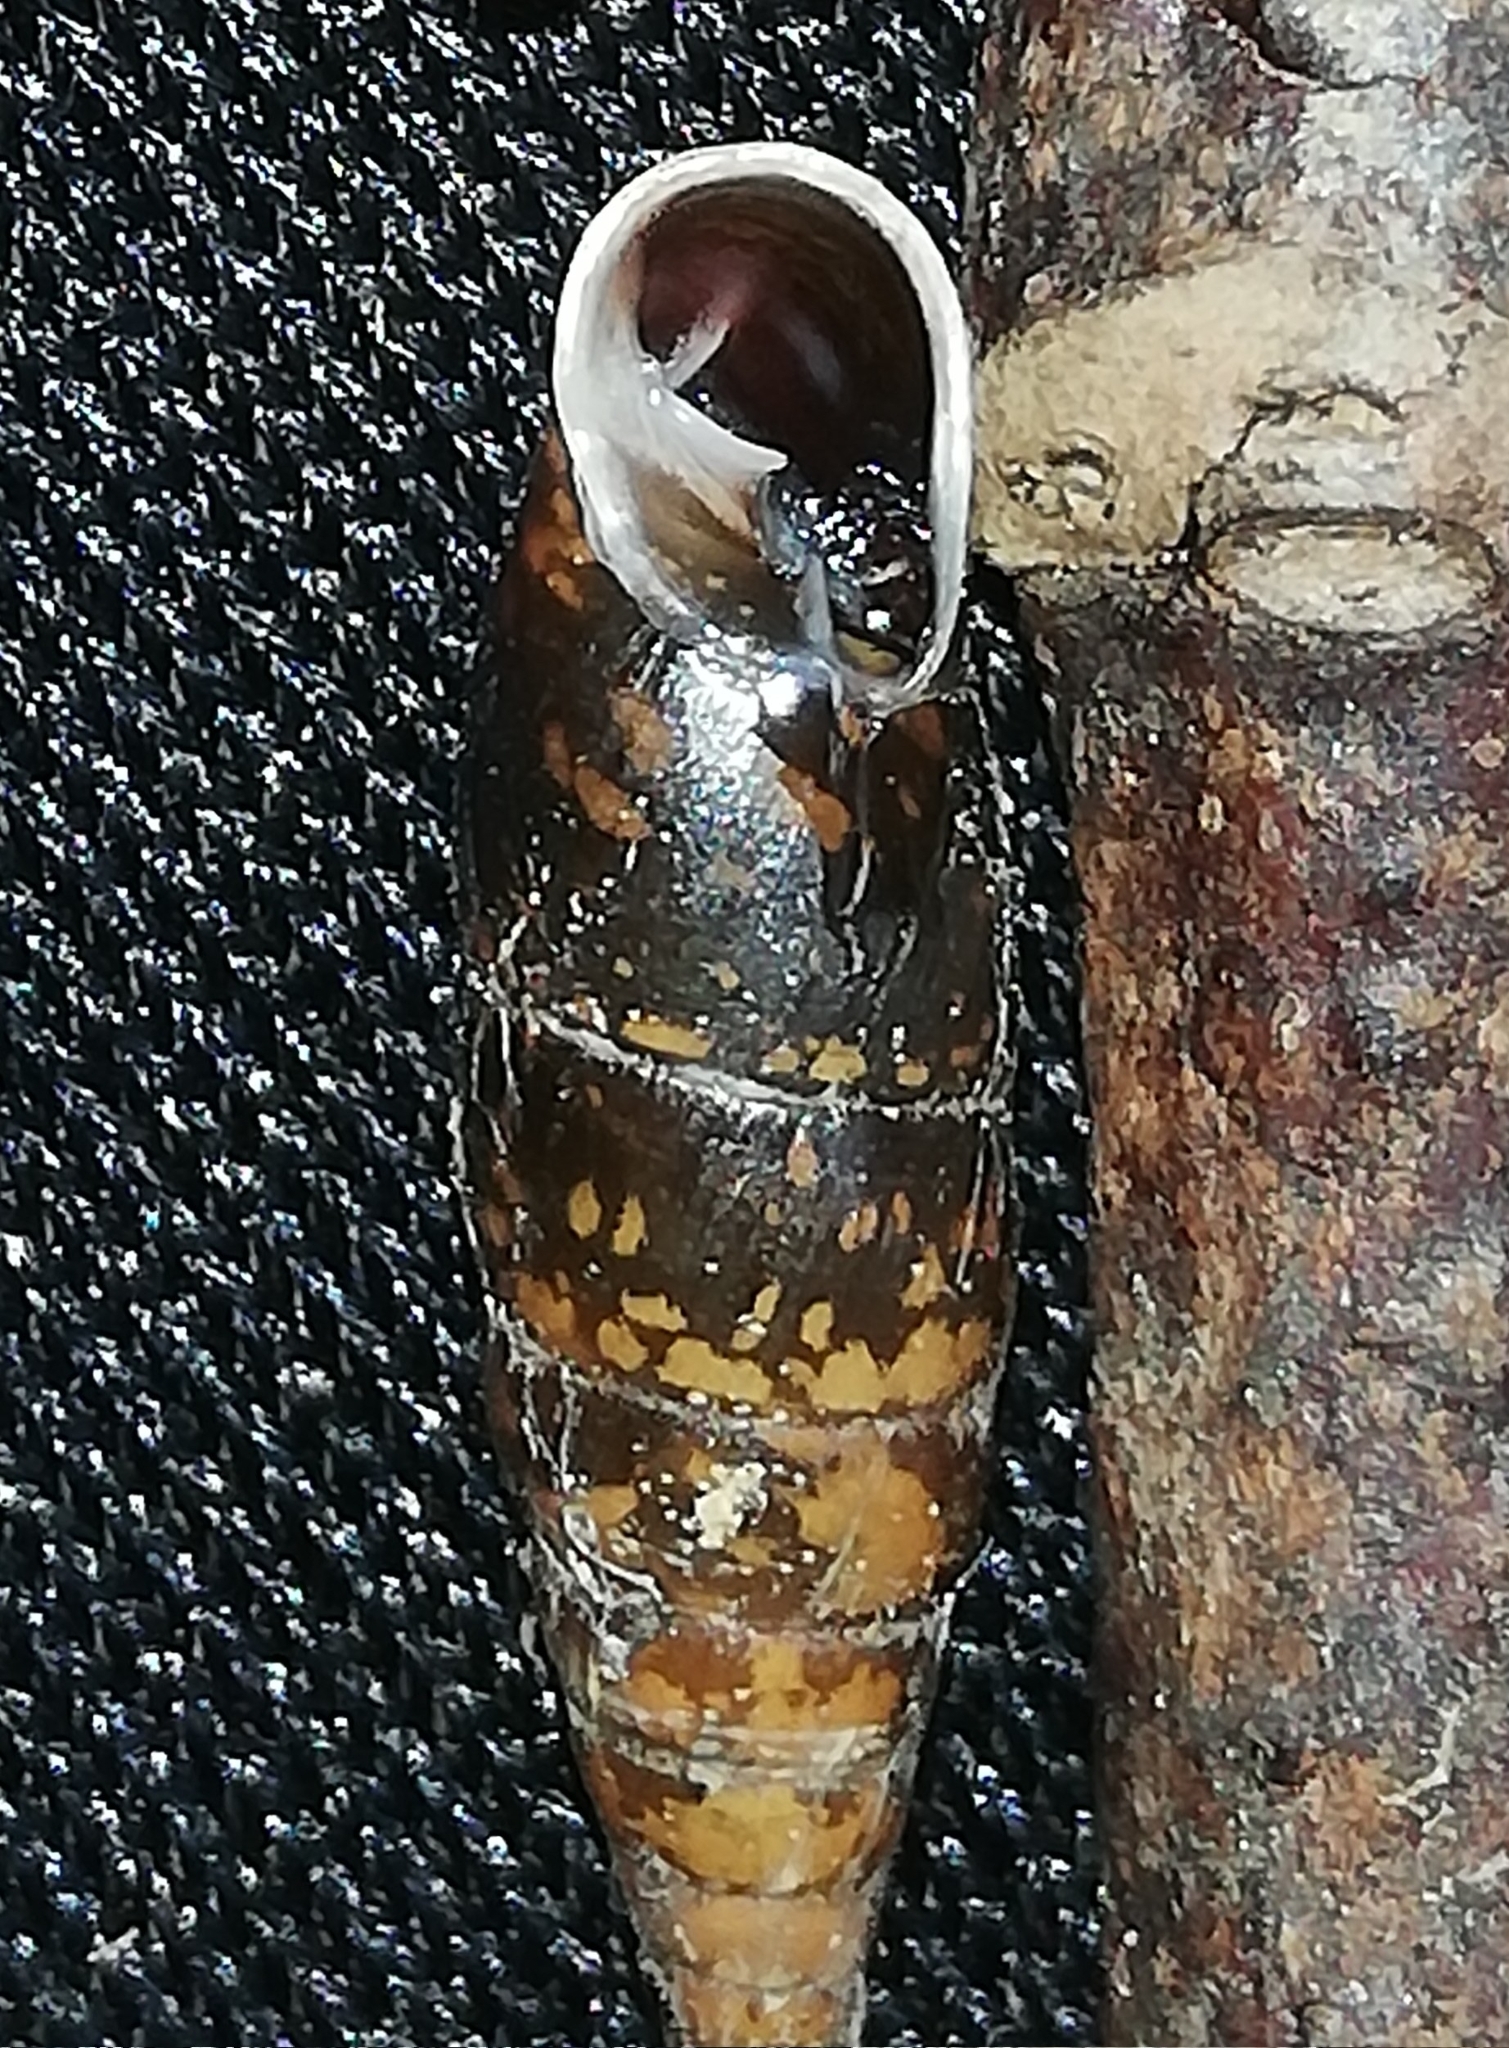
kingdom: Animalia
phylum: Mollusca
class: Gastropoda
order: Stylommatophora
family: Clausiliidae
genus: Cochlodina
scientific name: Cochlodina laminata
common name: Plaited door snail
